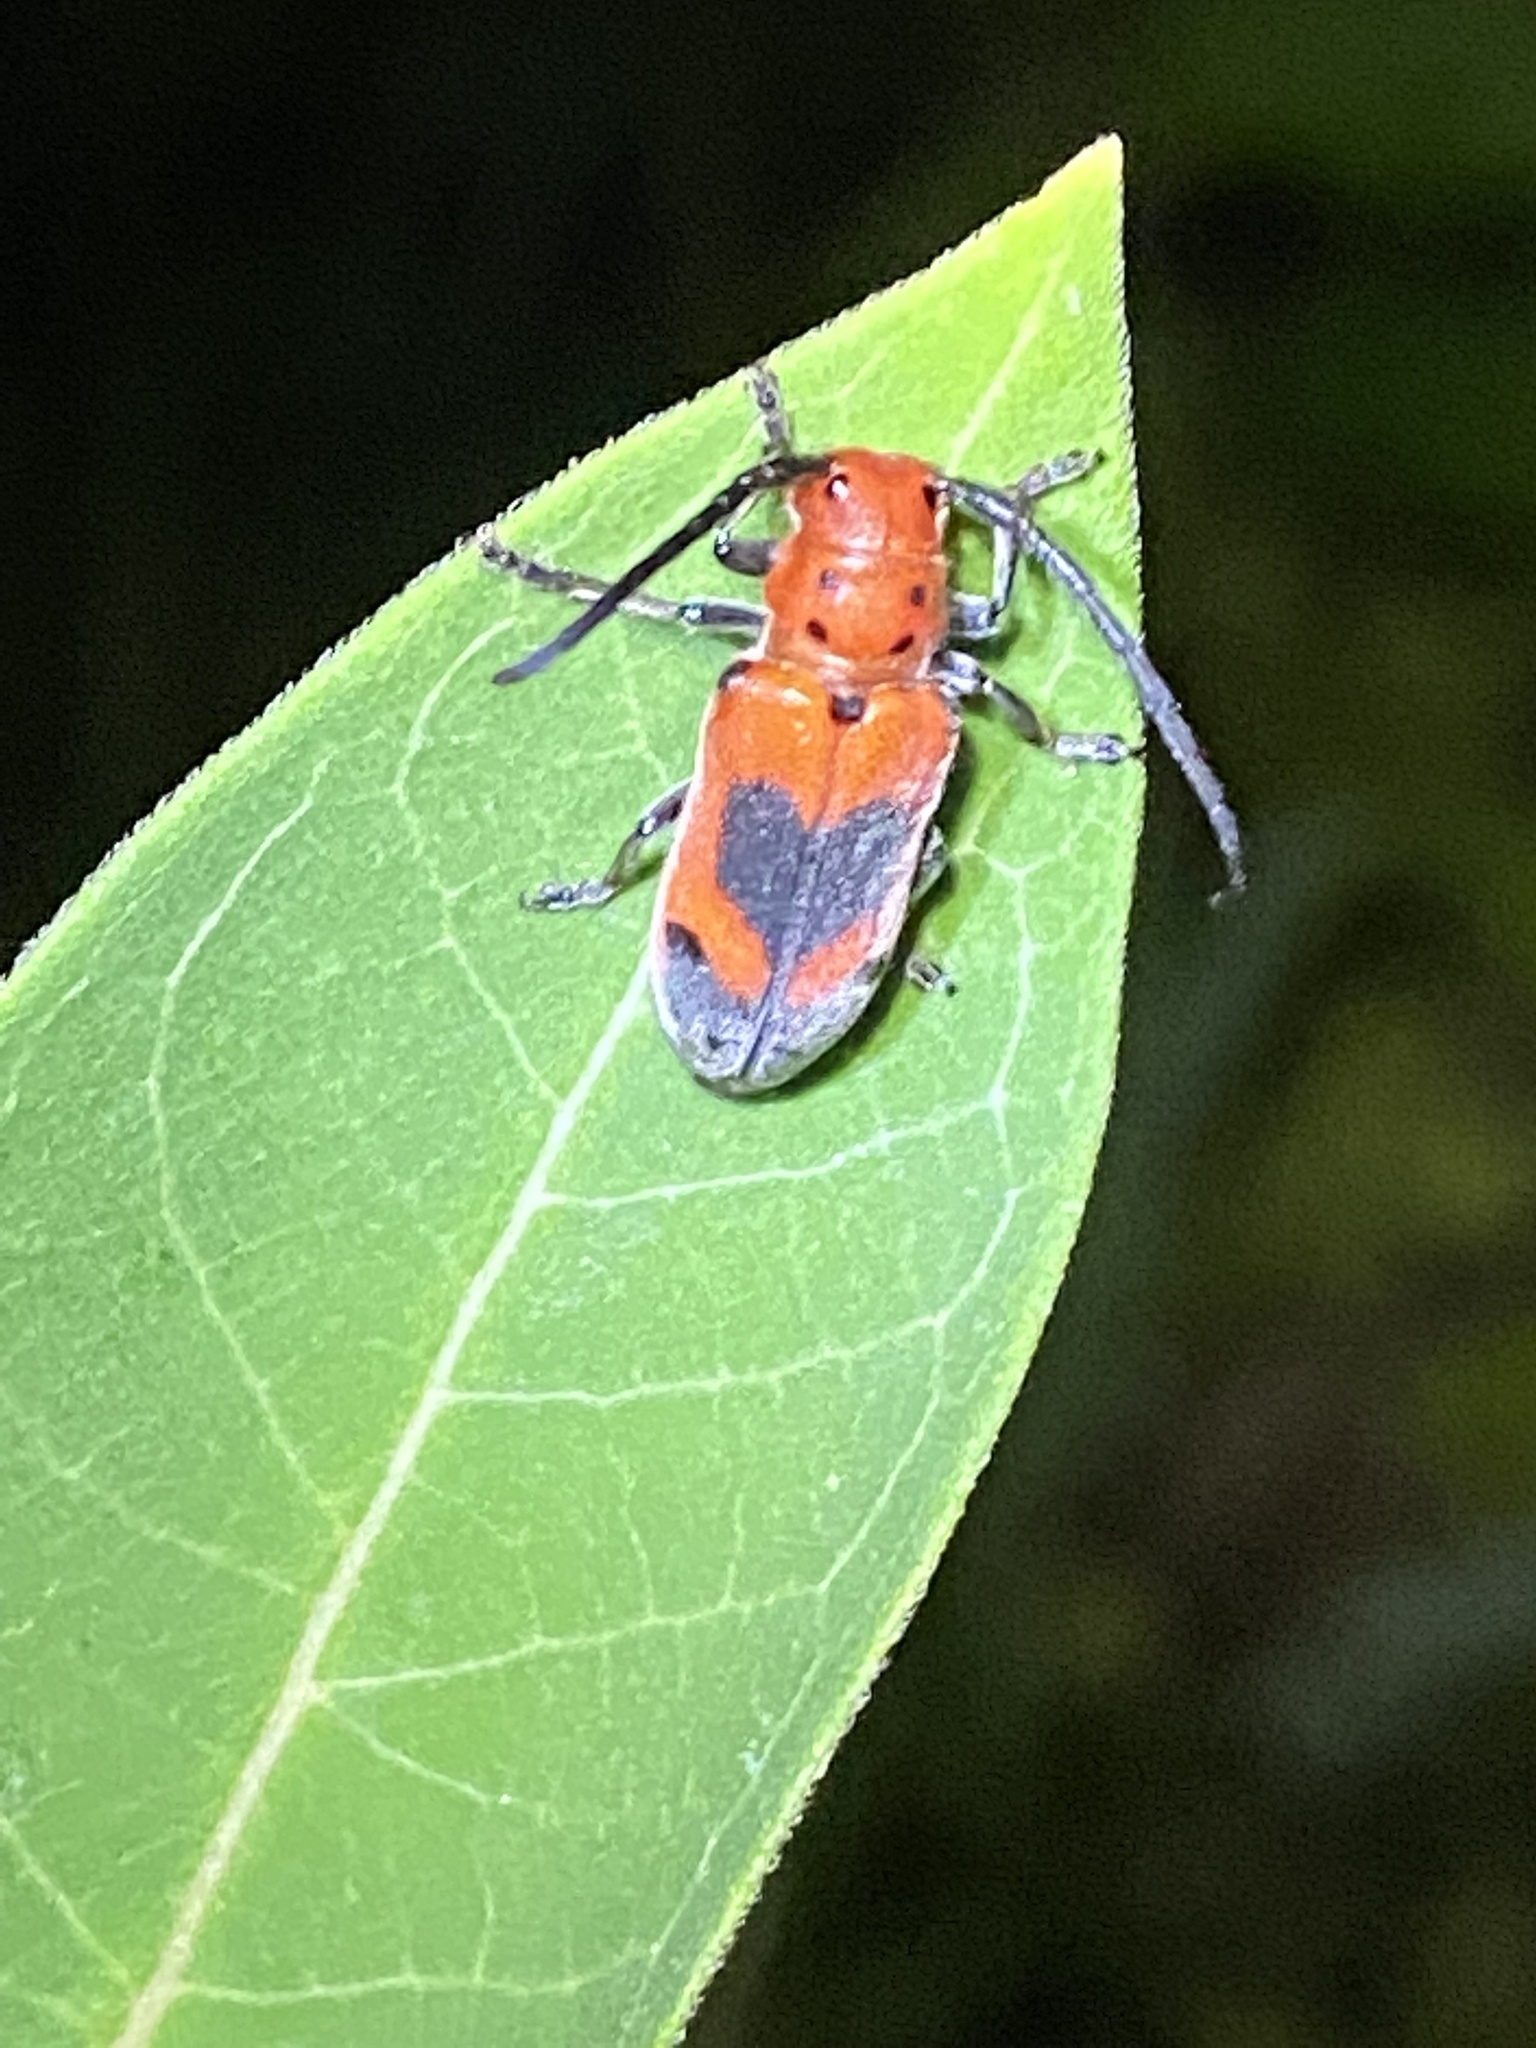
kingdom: Animalia
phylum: Arthropoda
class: Insecta
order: Coleoptera
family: Cerambycidae
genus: Tetraopes
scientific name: Tetraopes melanurus
